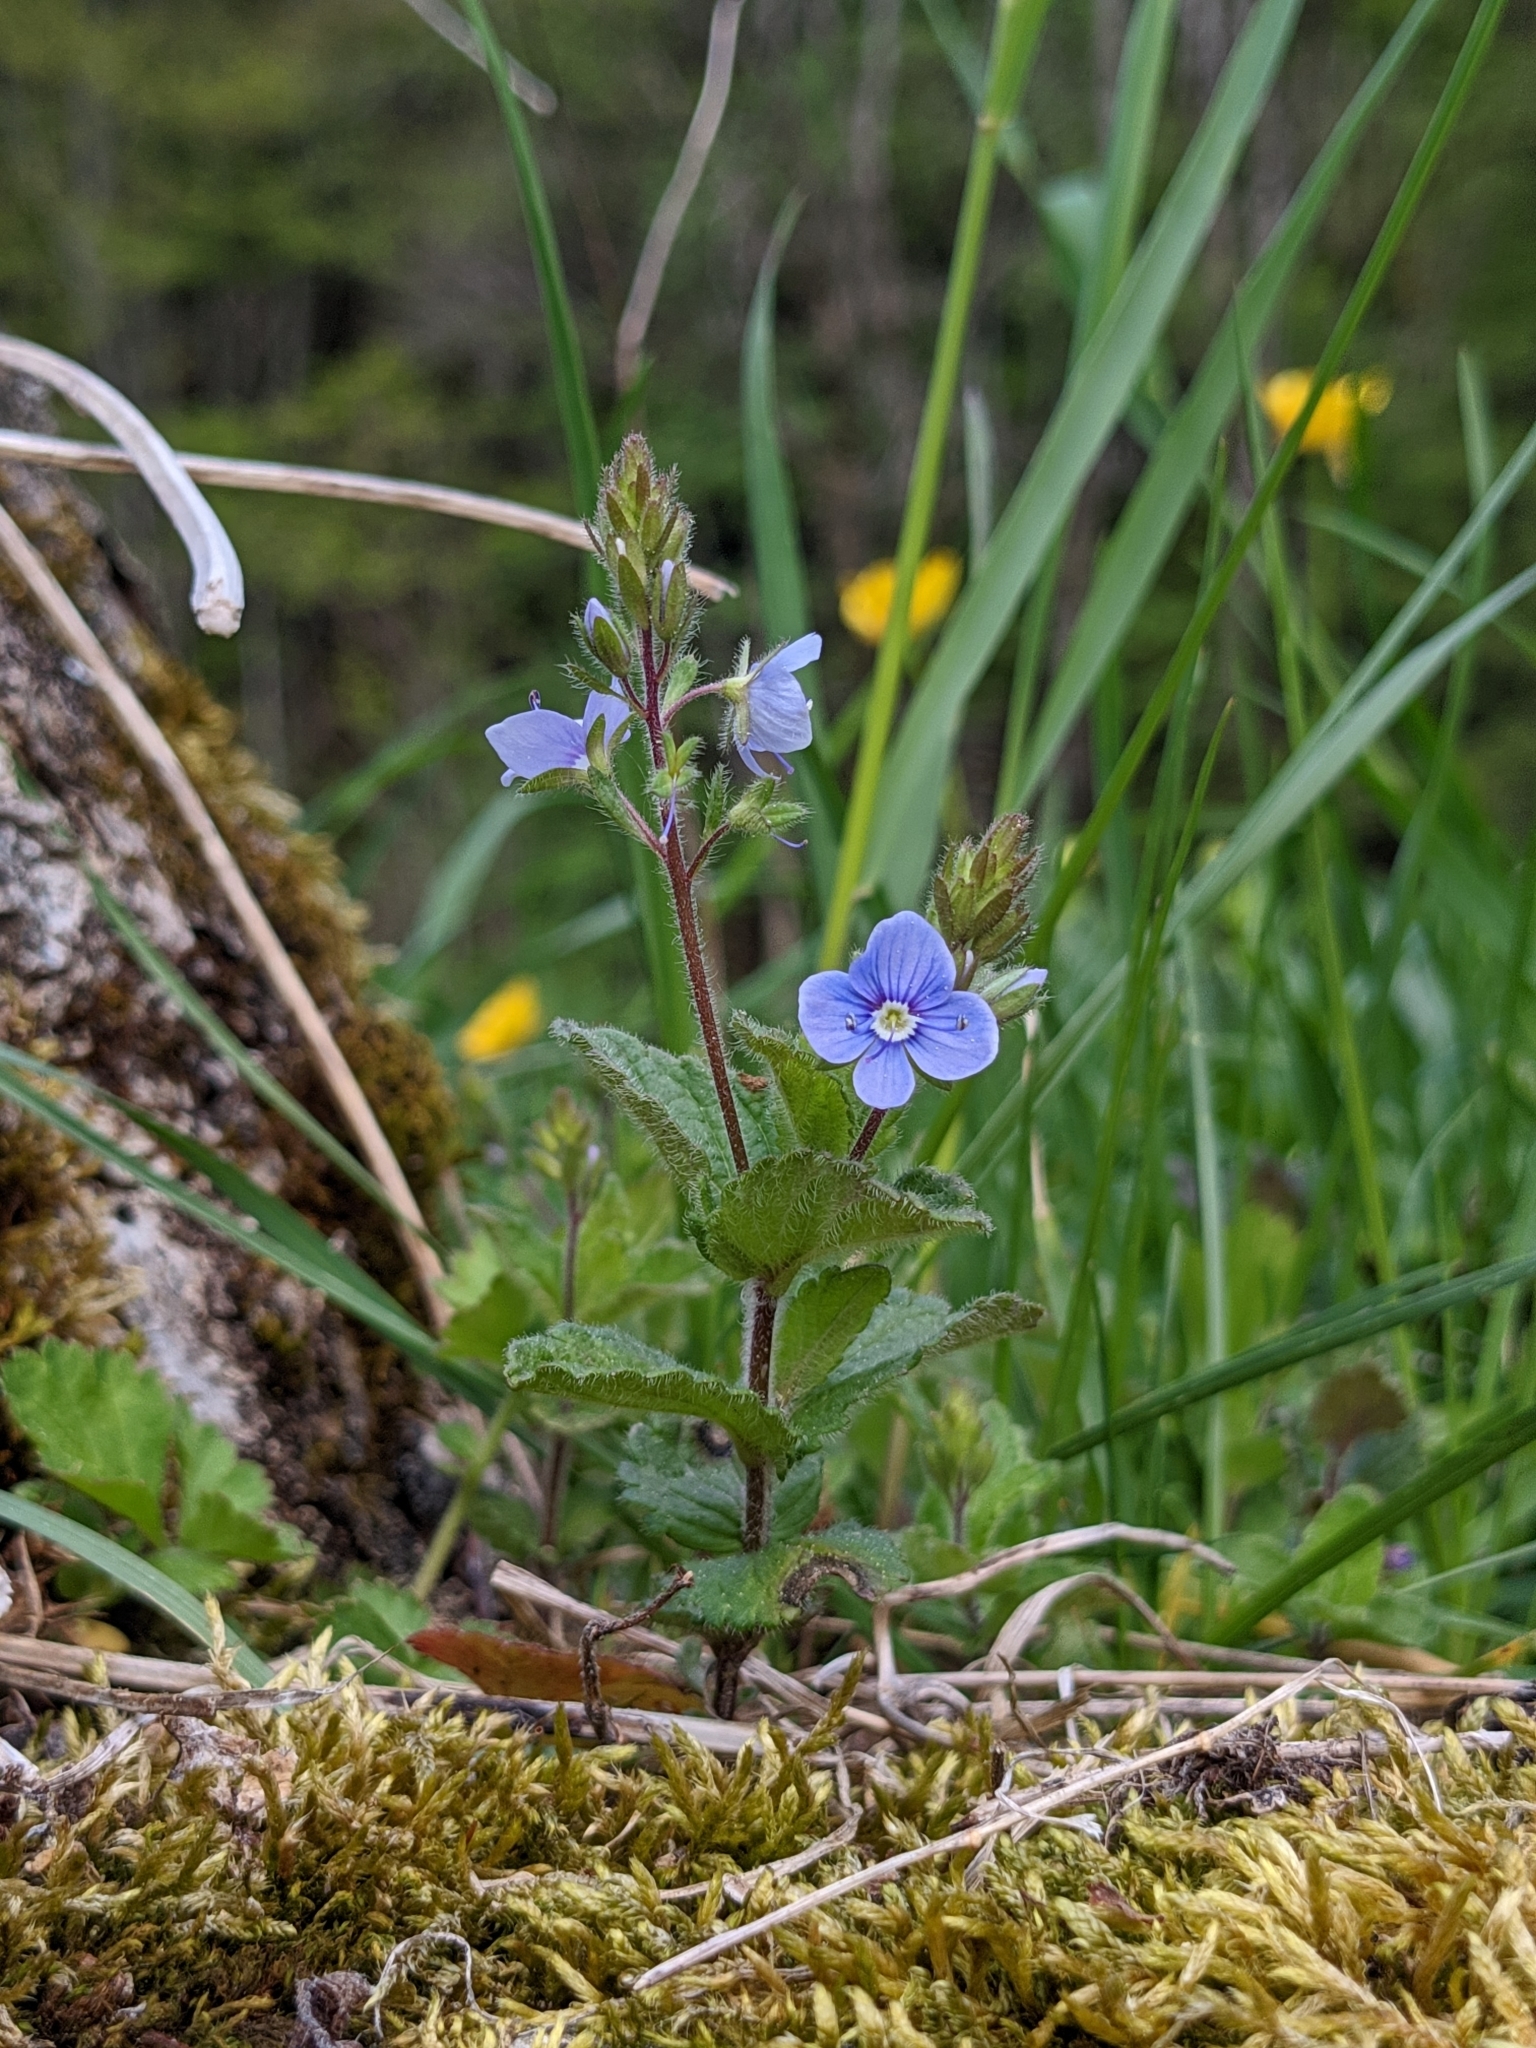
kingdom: Plantae
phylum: Tracheophyta
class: Magnoliopsida
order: Lamiales
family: Plantaginaceae
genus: Veronica
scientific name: Veronica chamaedrys
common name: Germander speedwell
